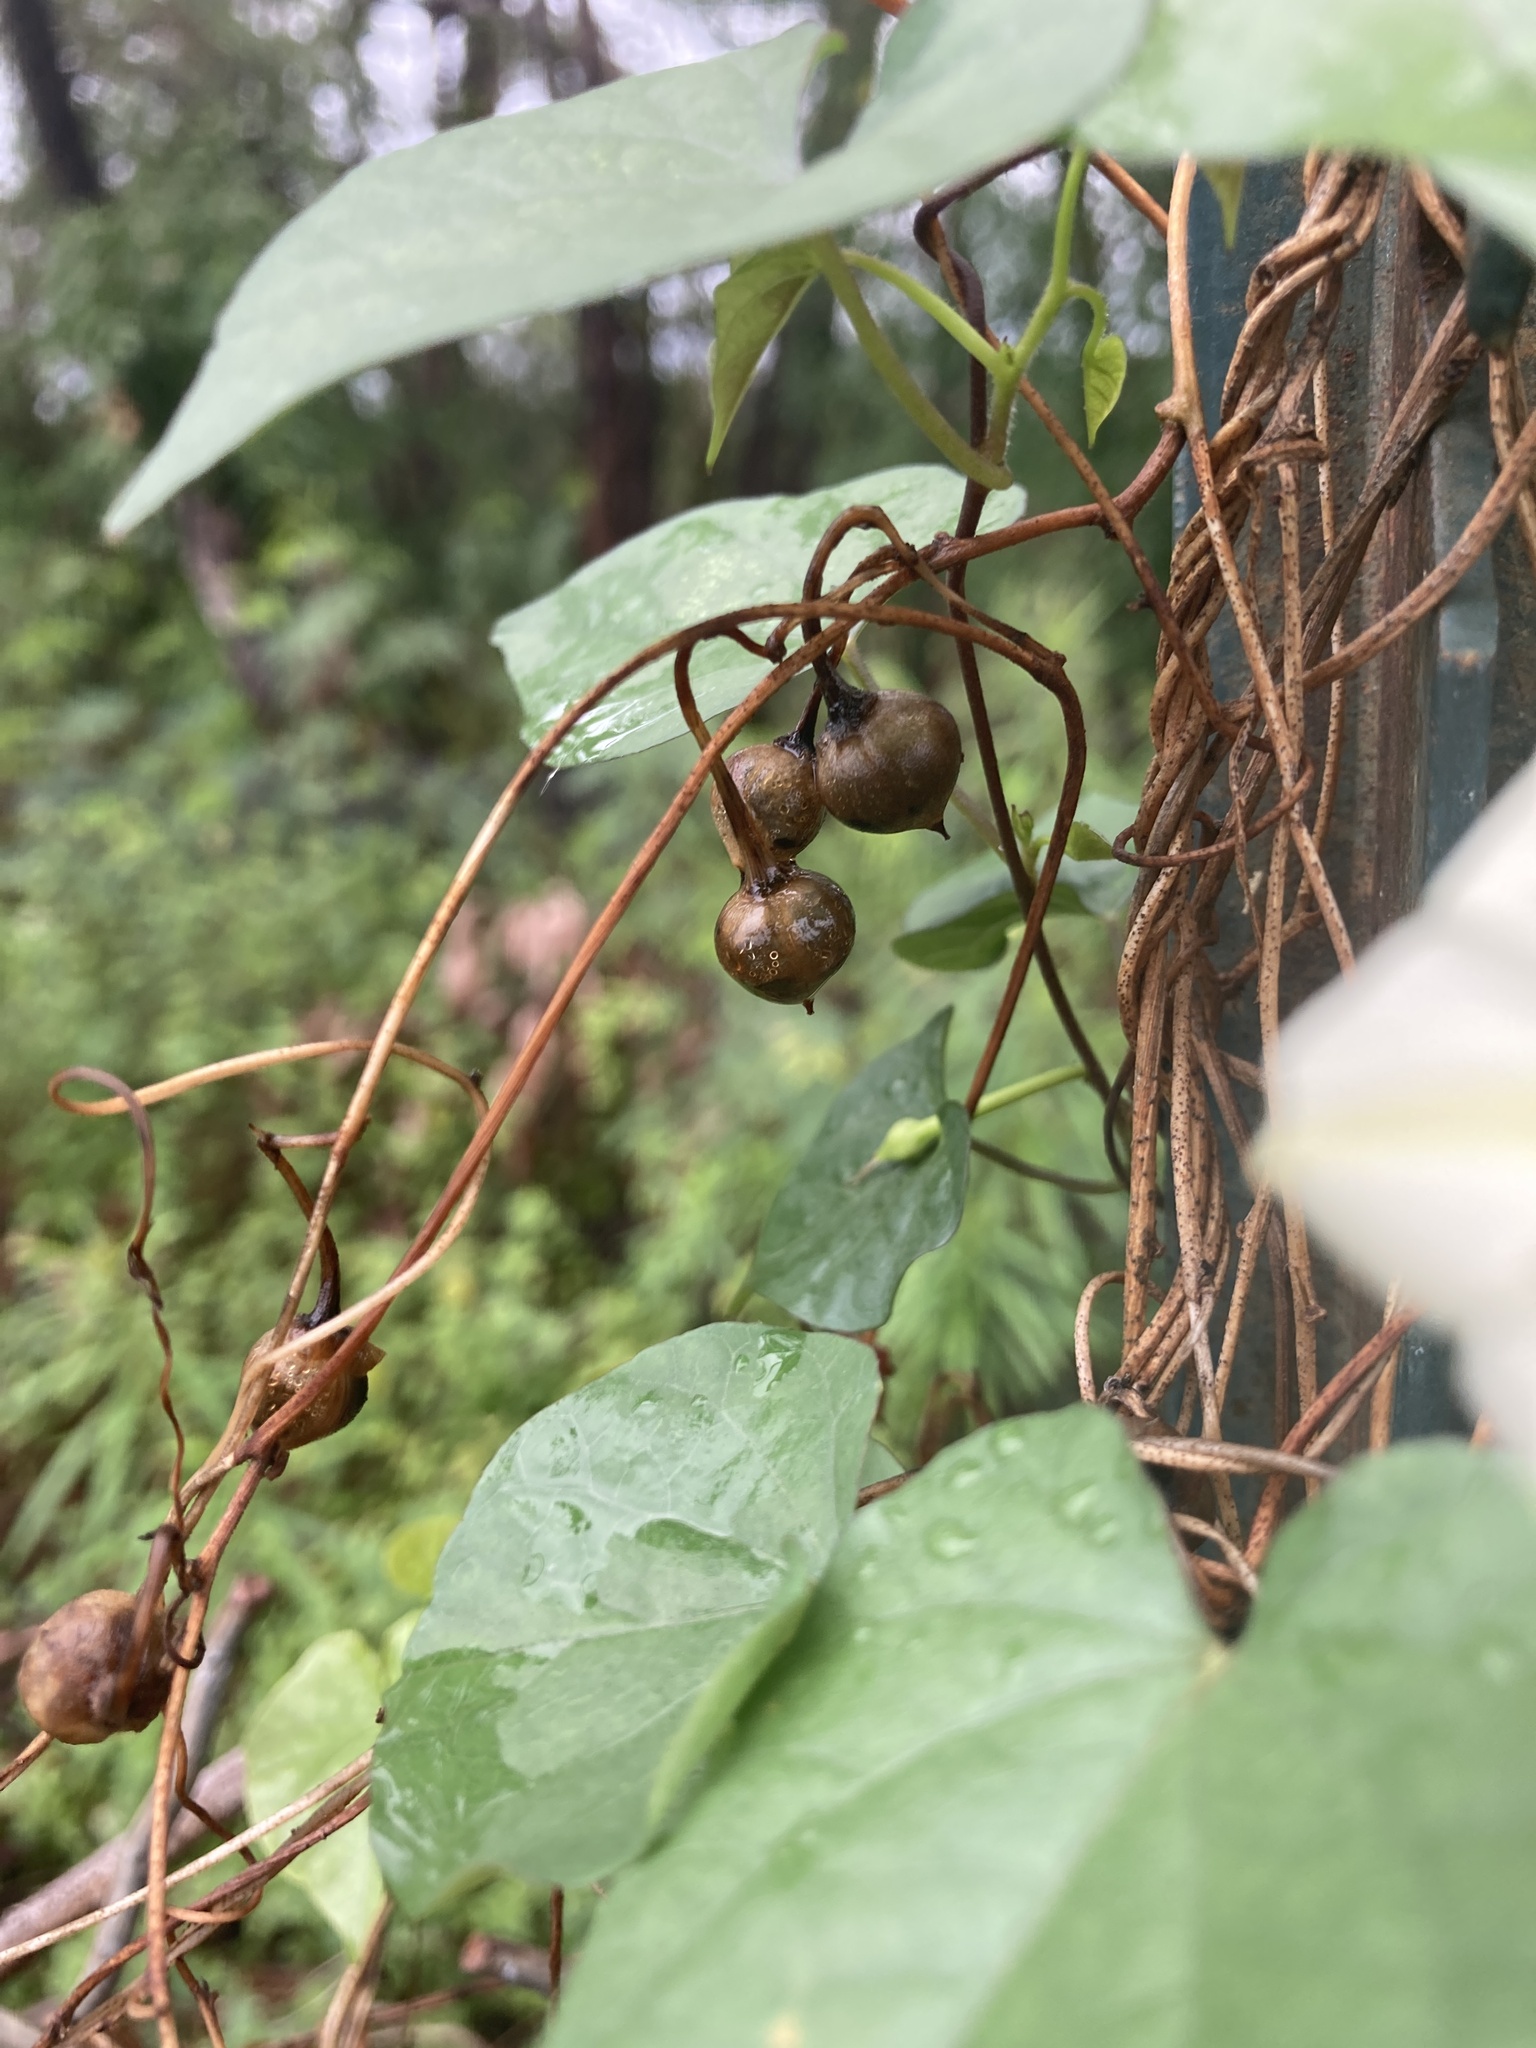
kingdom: Plantae
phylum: Tracheophyta
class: Magnoliopsida
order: Solanales
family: Convolvulaceae
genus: Ipomoea
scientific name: Ipomoea obscura
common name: Obscure morning-glory
